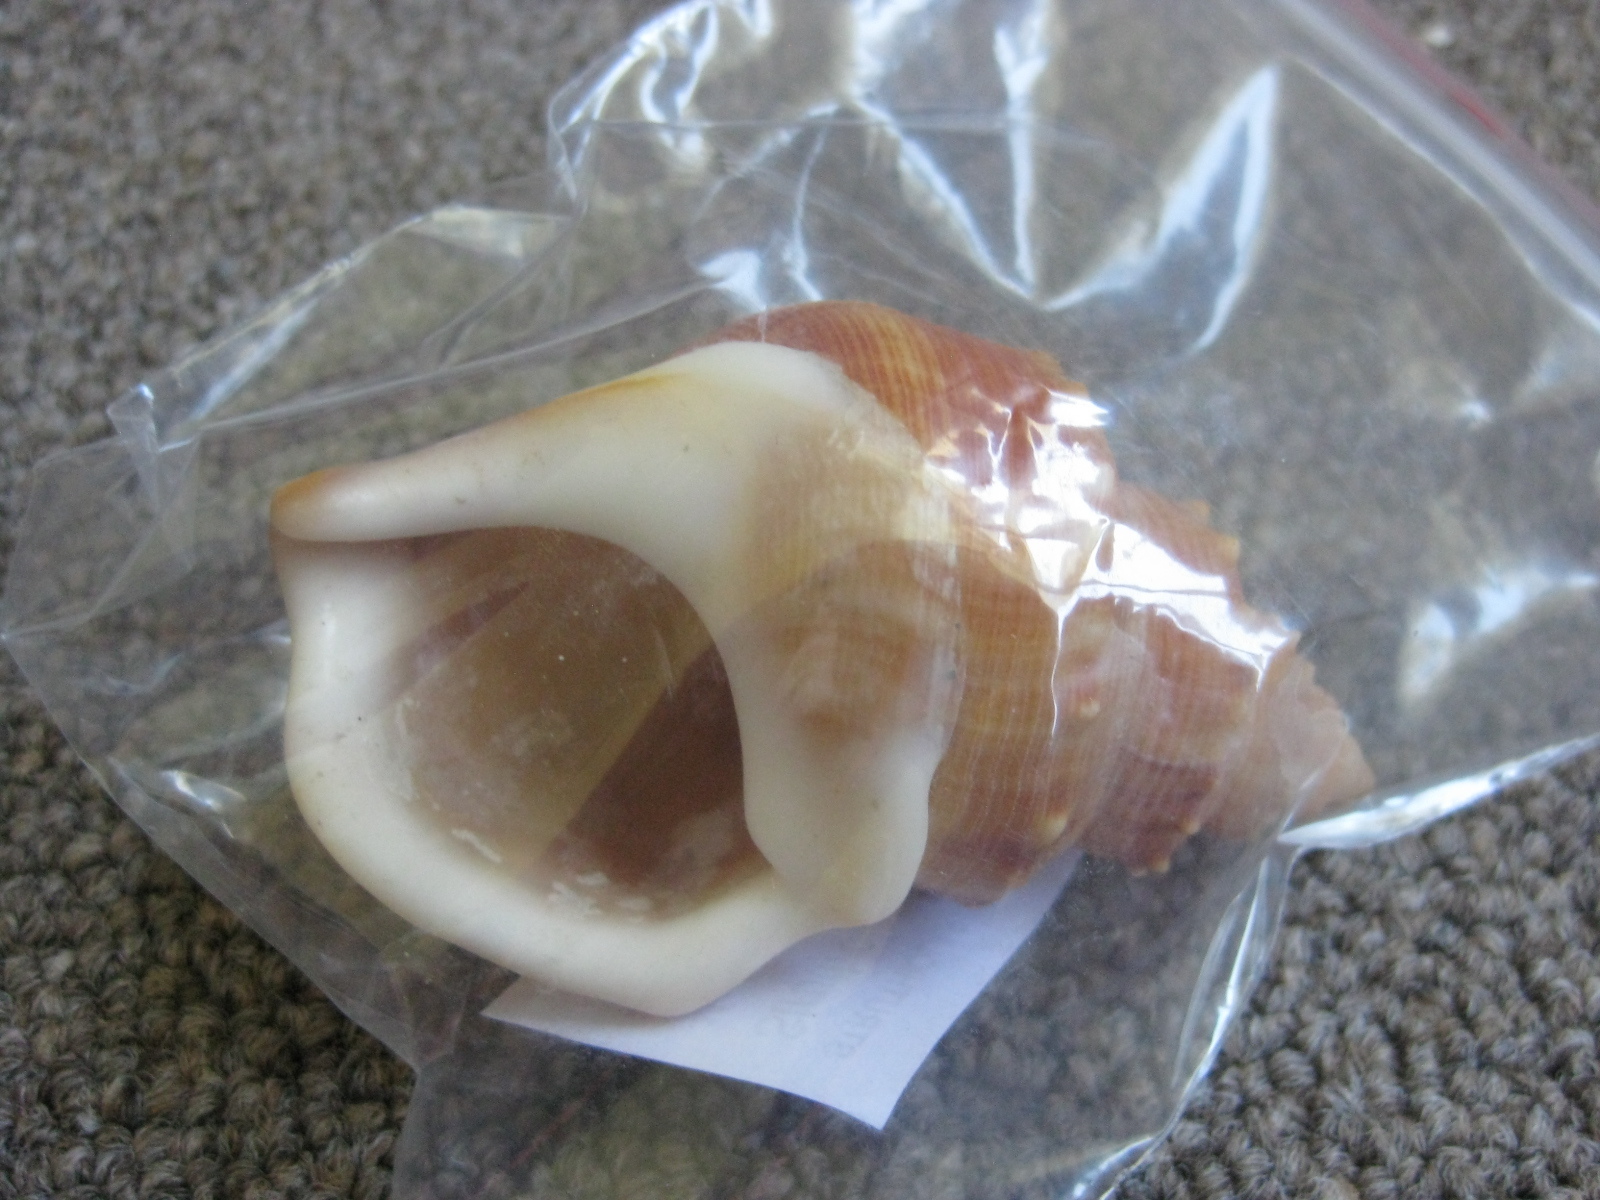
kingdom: Animalia
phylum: Mollusca
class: Gastropoda
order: Littorinimorpha
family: Struthiolariidae
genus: Struthiolaria
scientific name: Struthiolaria papulosa
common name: Large ostrich foot
